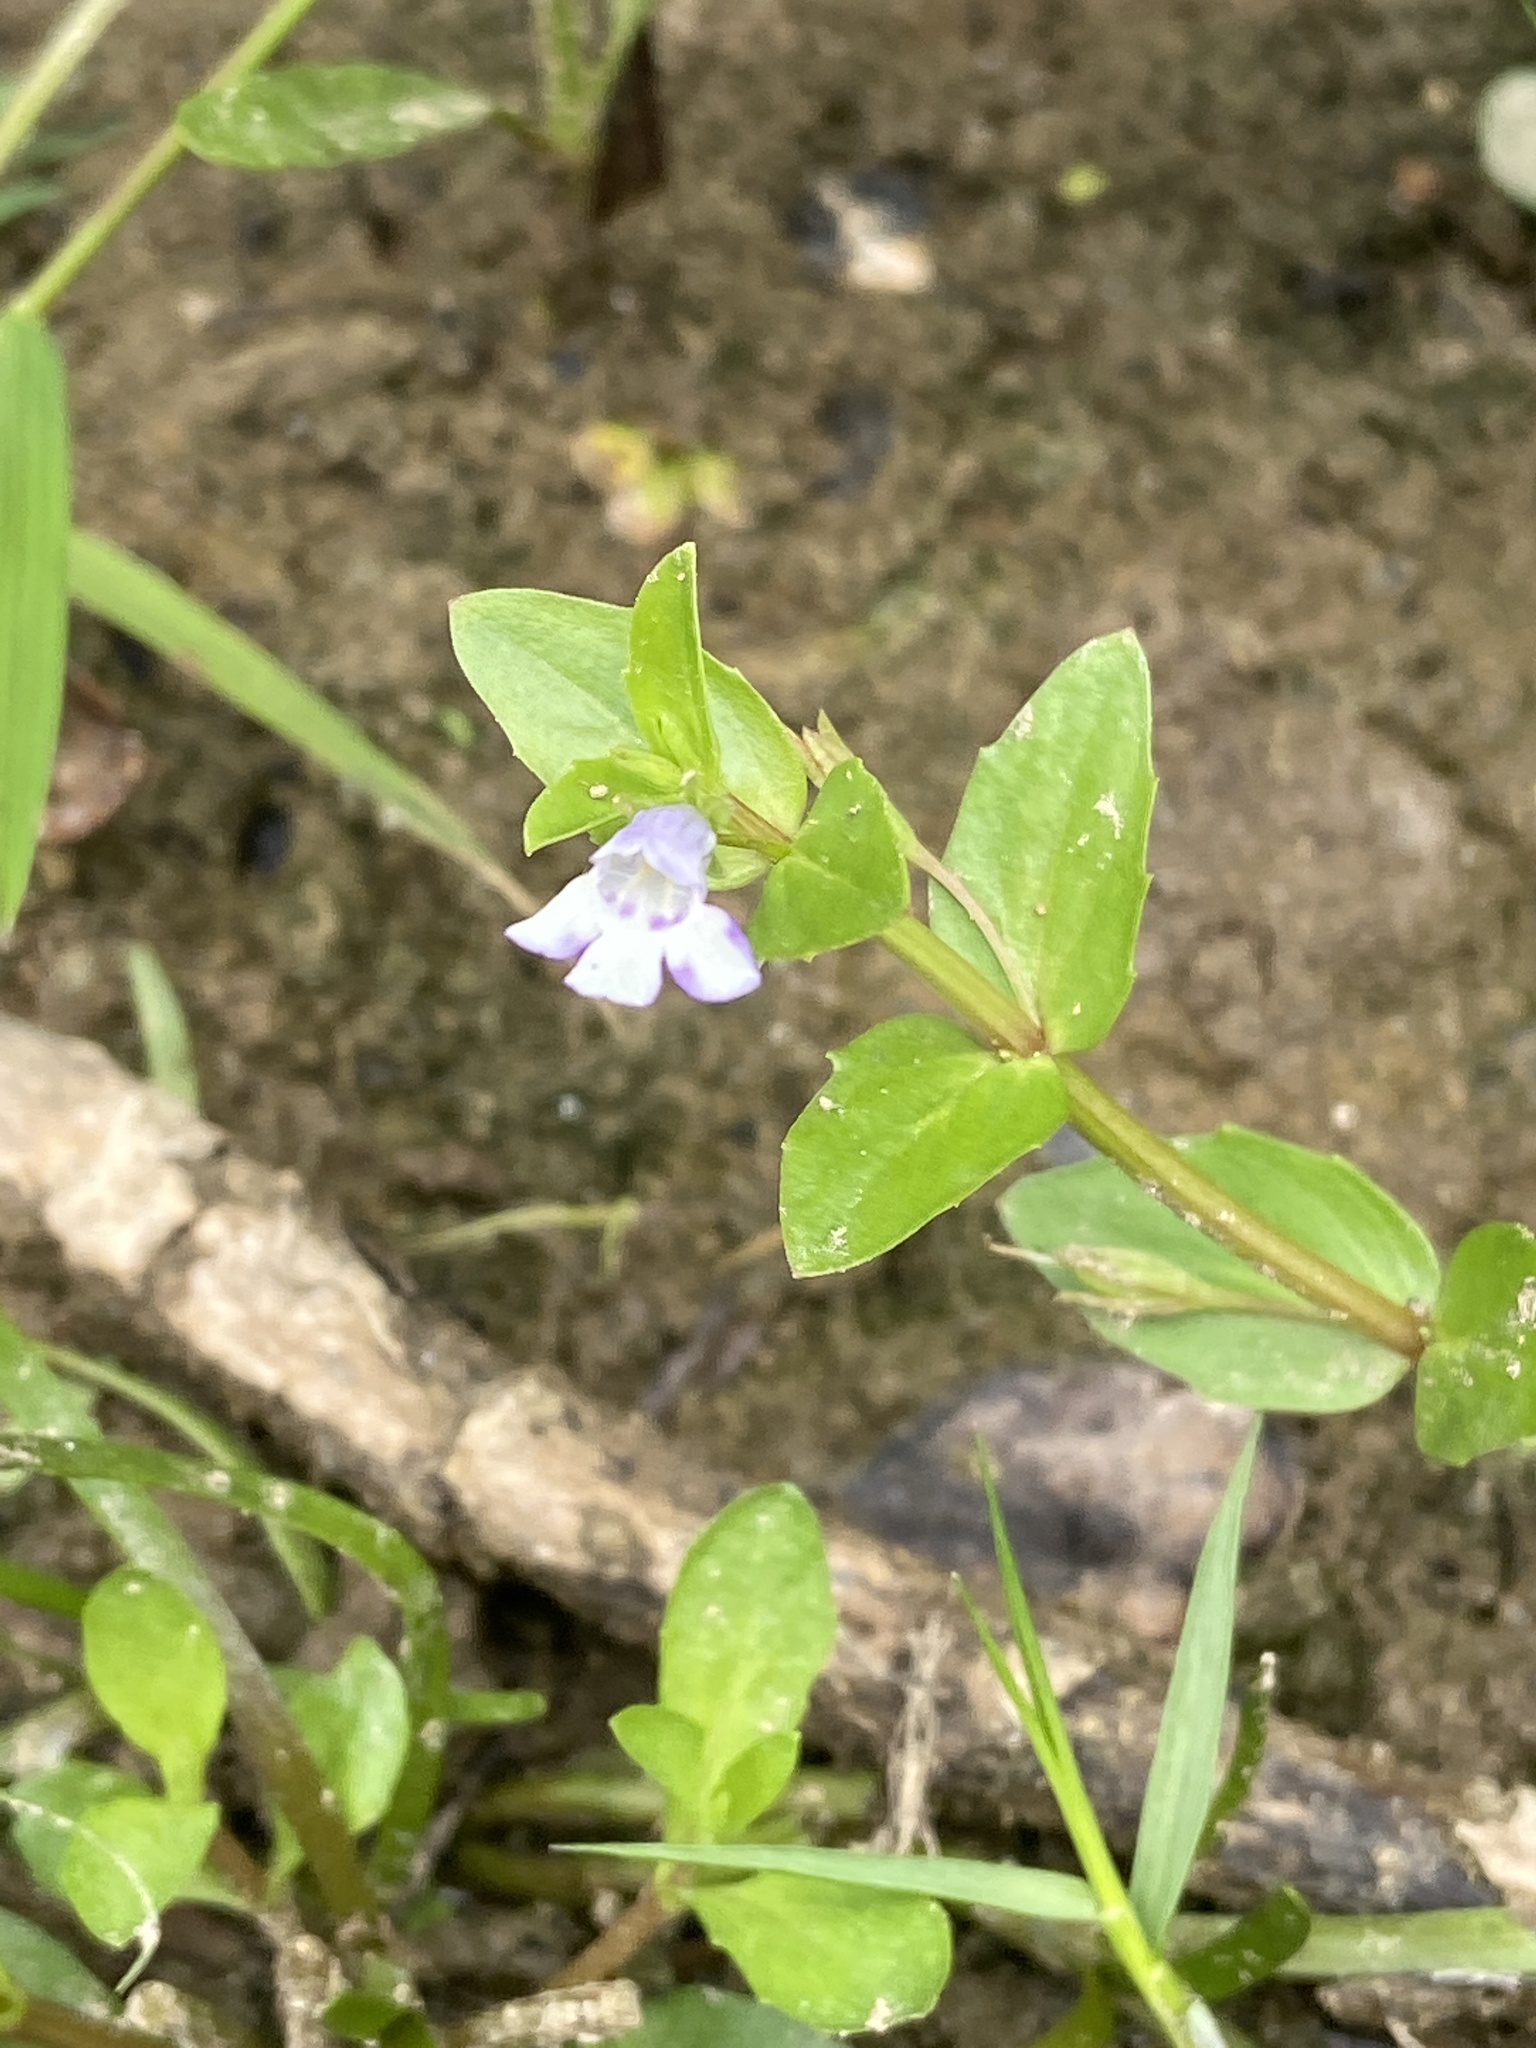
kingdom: Plantae
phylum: Tracheophyta
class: Magnoliopsida
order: Lamiales
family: Linderniaceae
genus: Lindernia
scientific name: Lindernia dubia
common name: Annual false pimpernel
